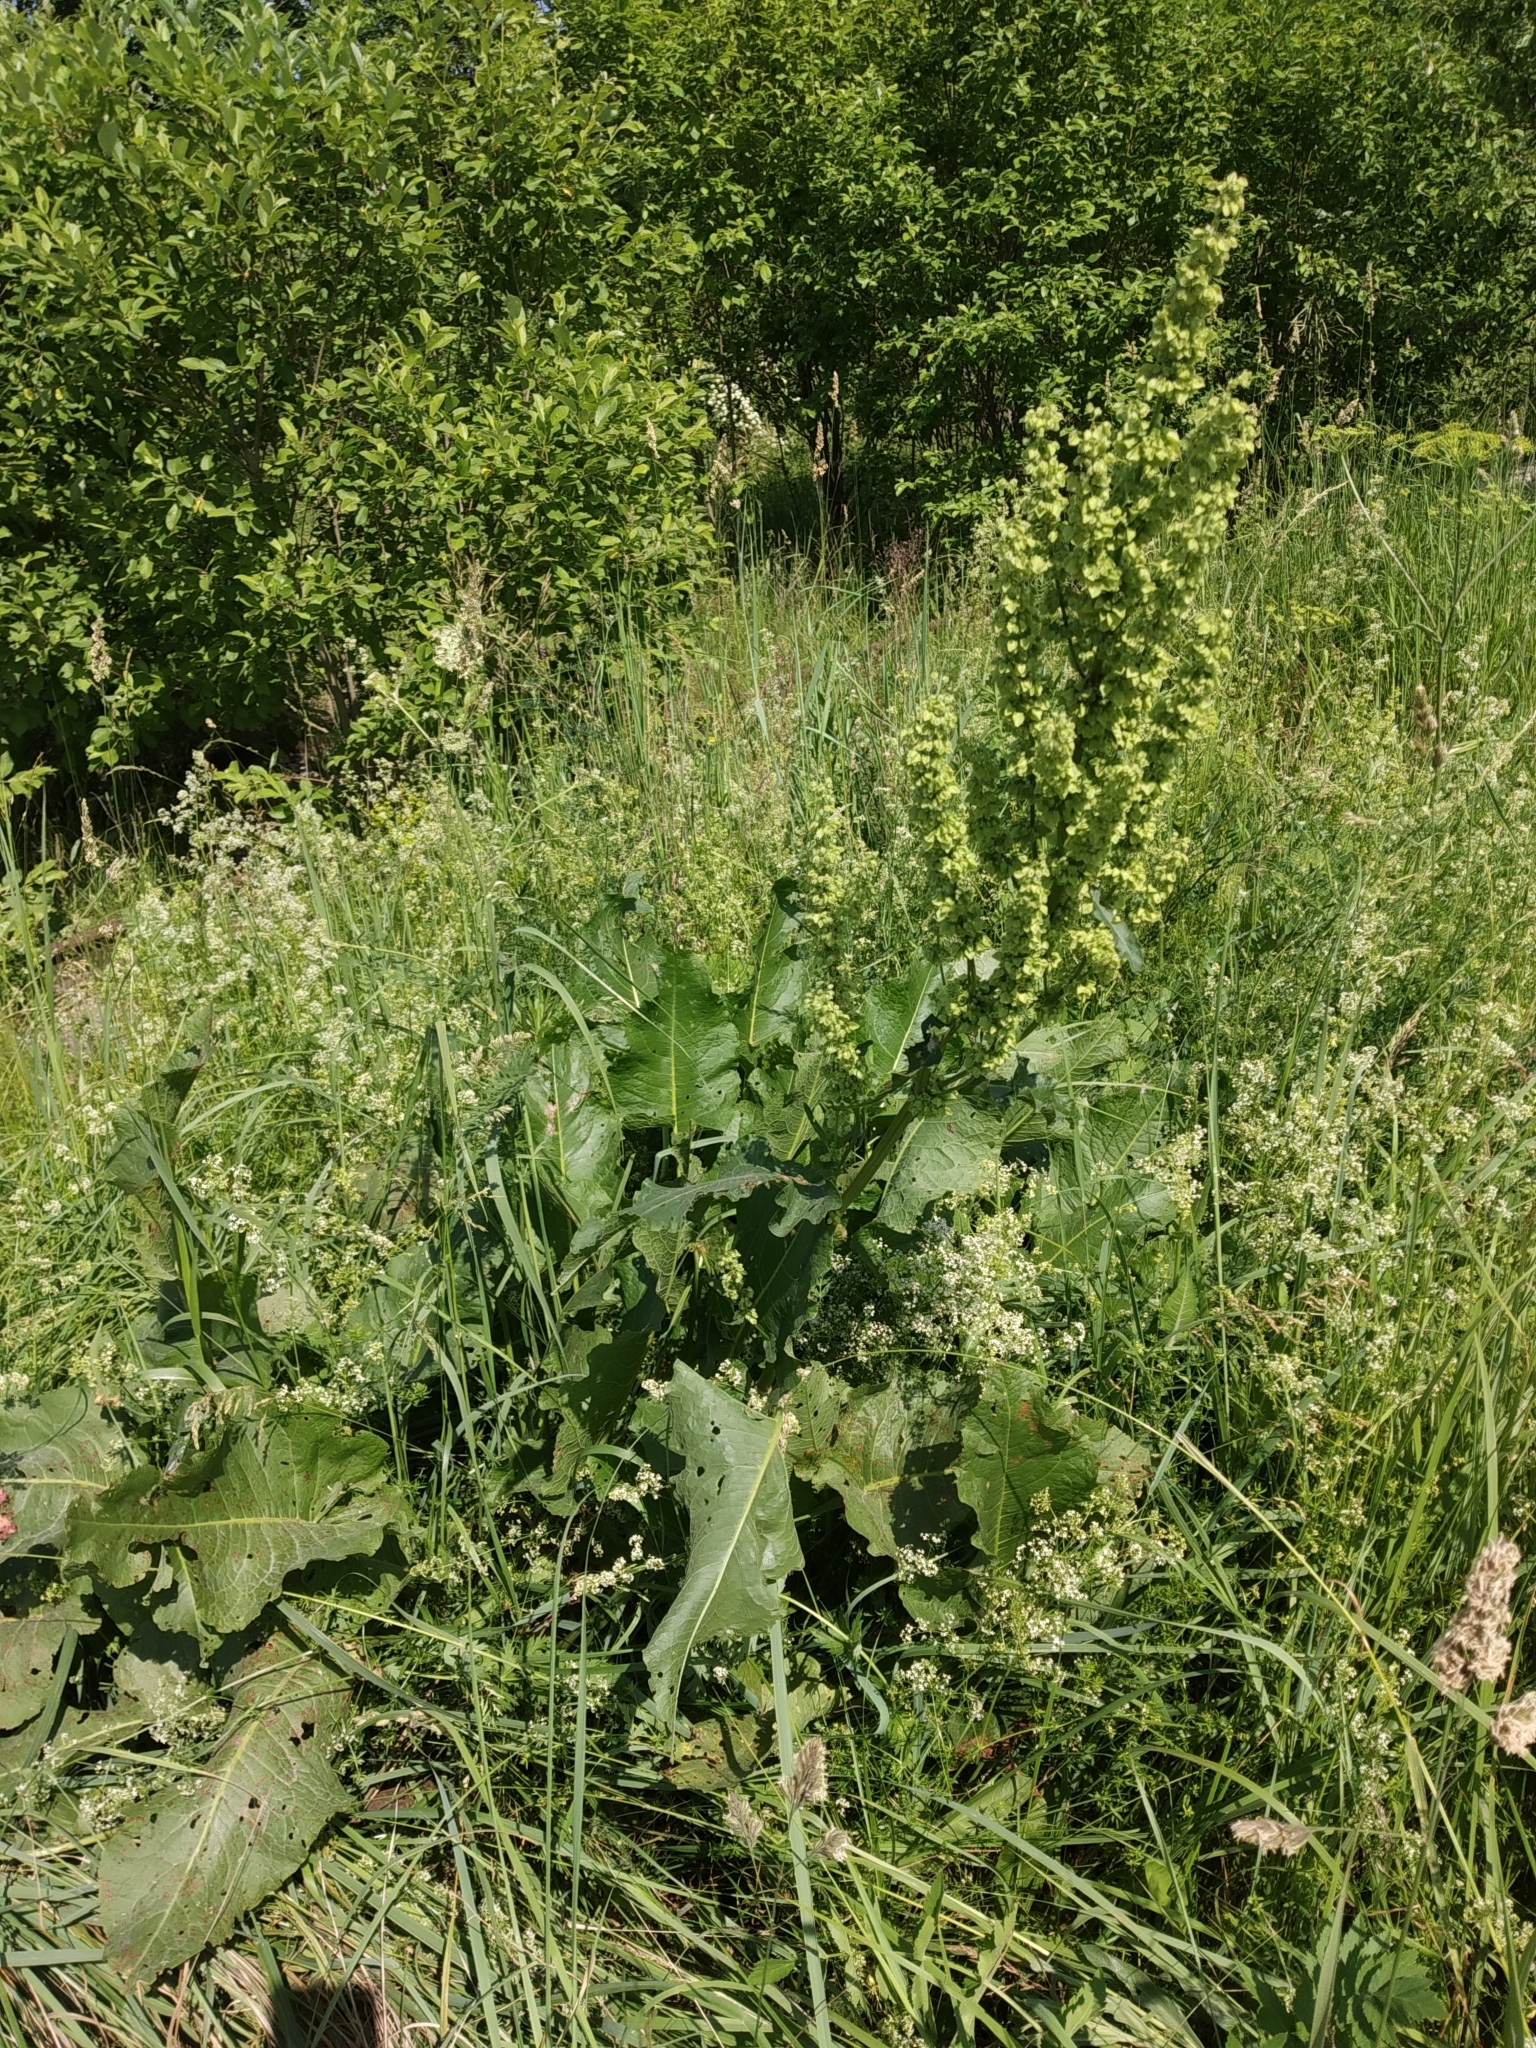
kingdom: Plantae
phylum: Tracheophyta
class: Magnoliopsida
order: Caryophyllales
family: Polygonaceae
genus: Rumex
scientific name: Rumex confertus
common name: Russian dock
